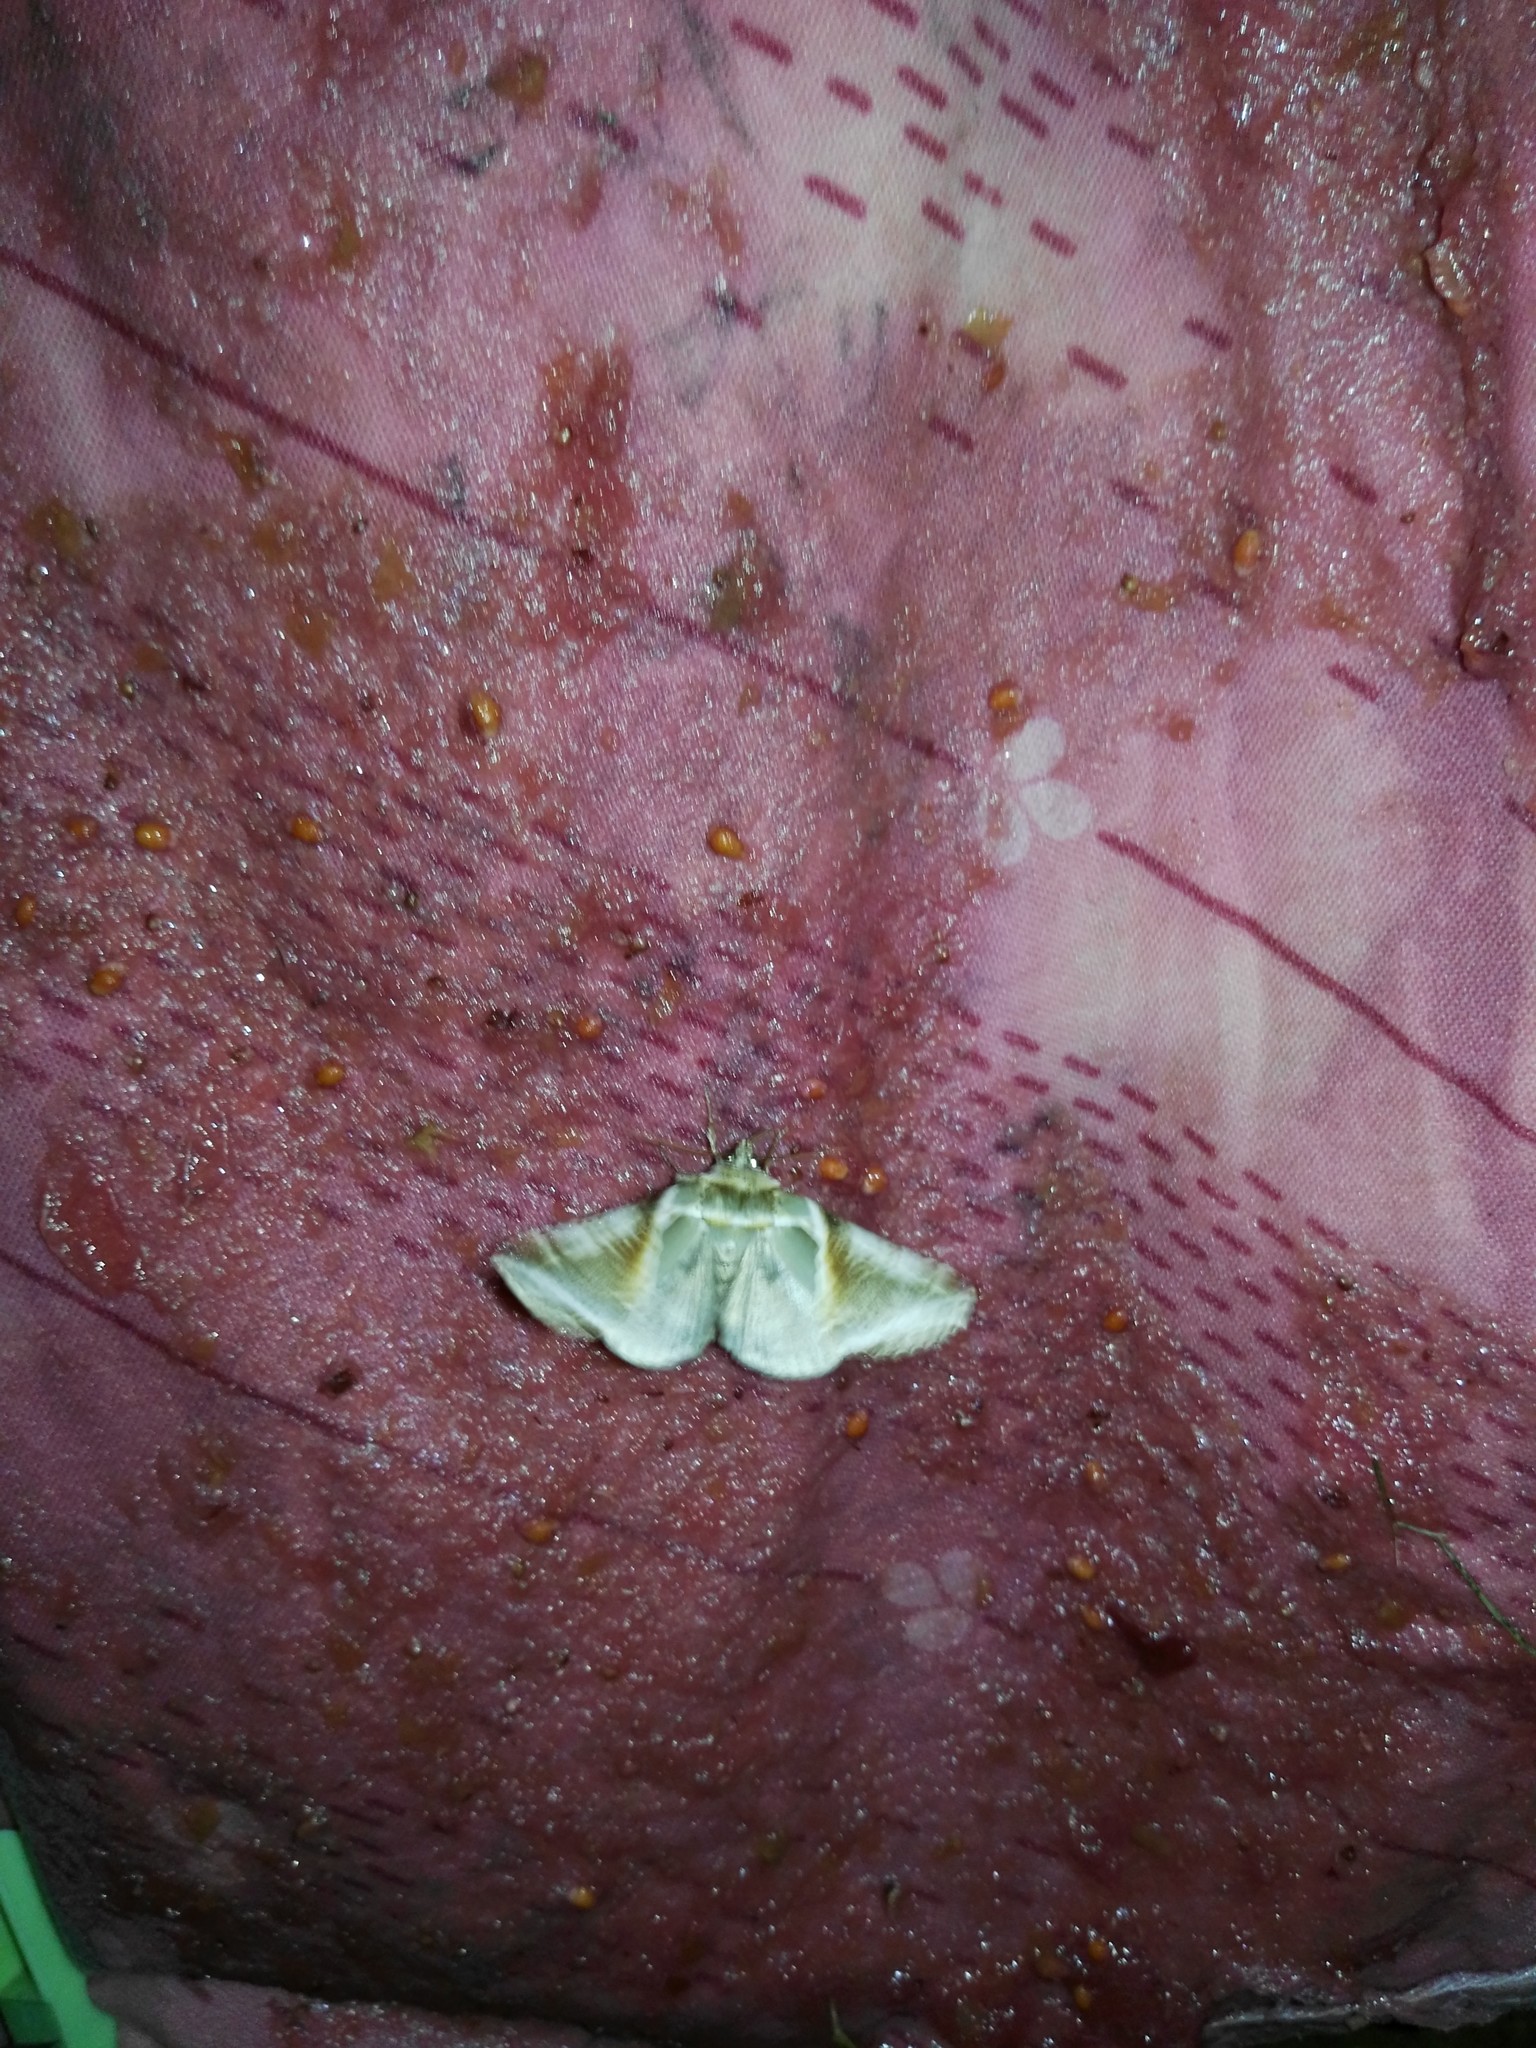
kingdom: Animalia
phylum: Arthropoda
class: Insecta
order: Lepidoptera
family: Drepanidae
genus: Habrosyne
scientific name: Habrosyne pyritoides
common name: Buff arches
